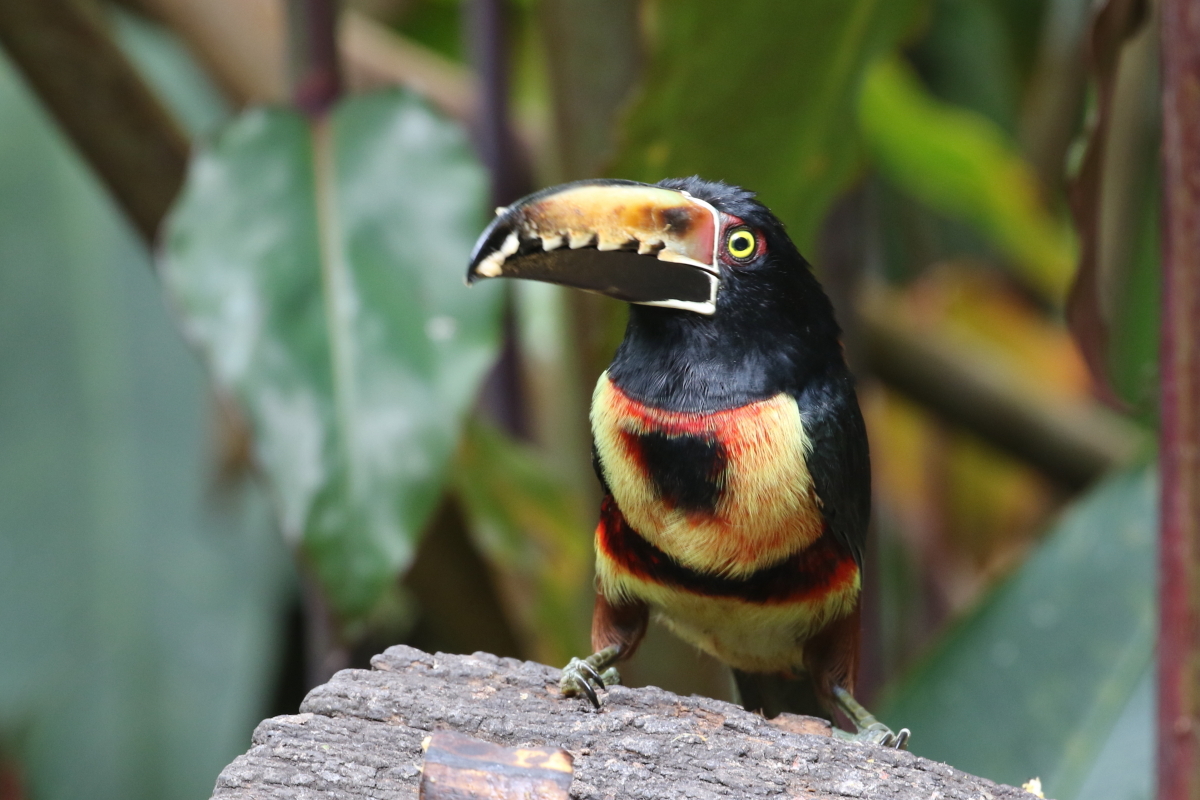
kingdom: Animalia
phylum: Chordata
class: Aves
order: Piciformes
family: Ramphastidae
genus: Pteroglossus
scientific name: Pteroglossus torquatus
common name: Collared aracari
